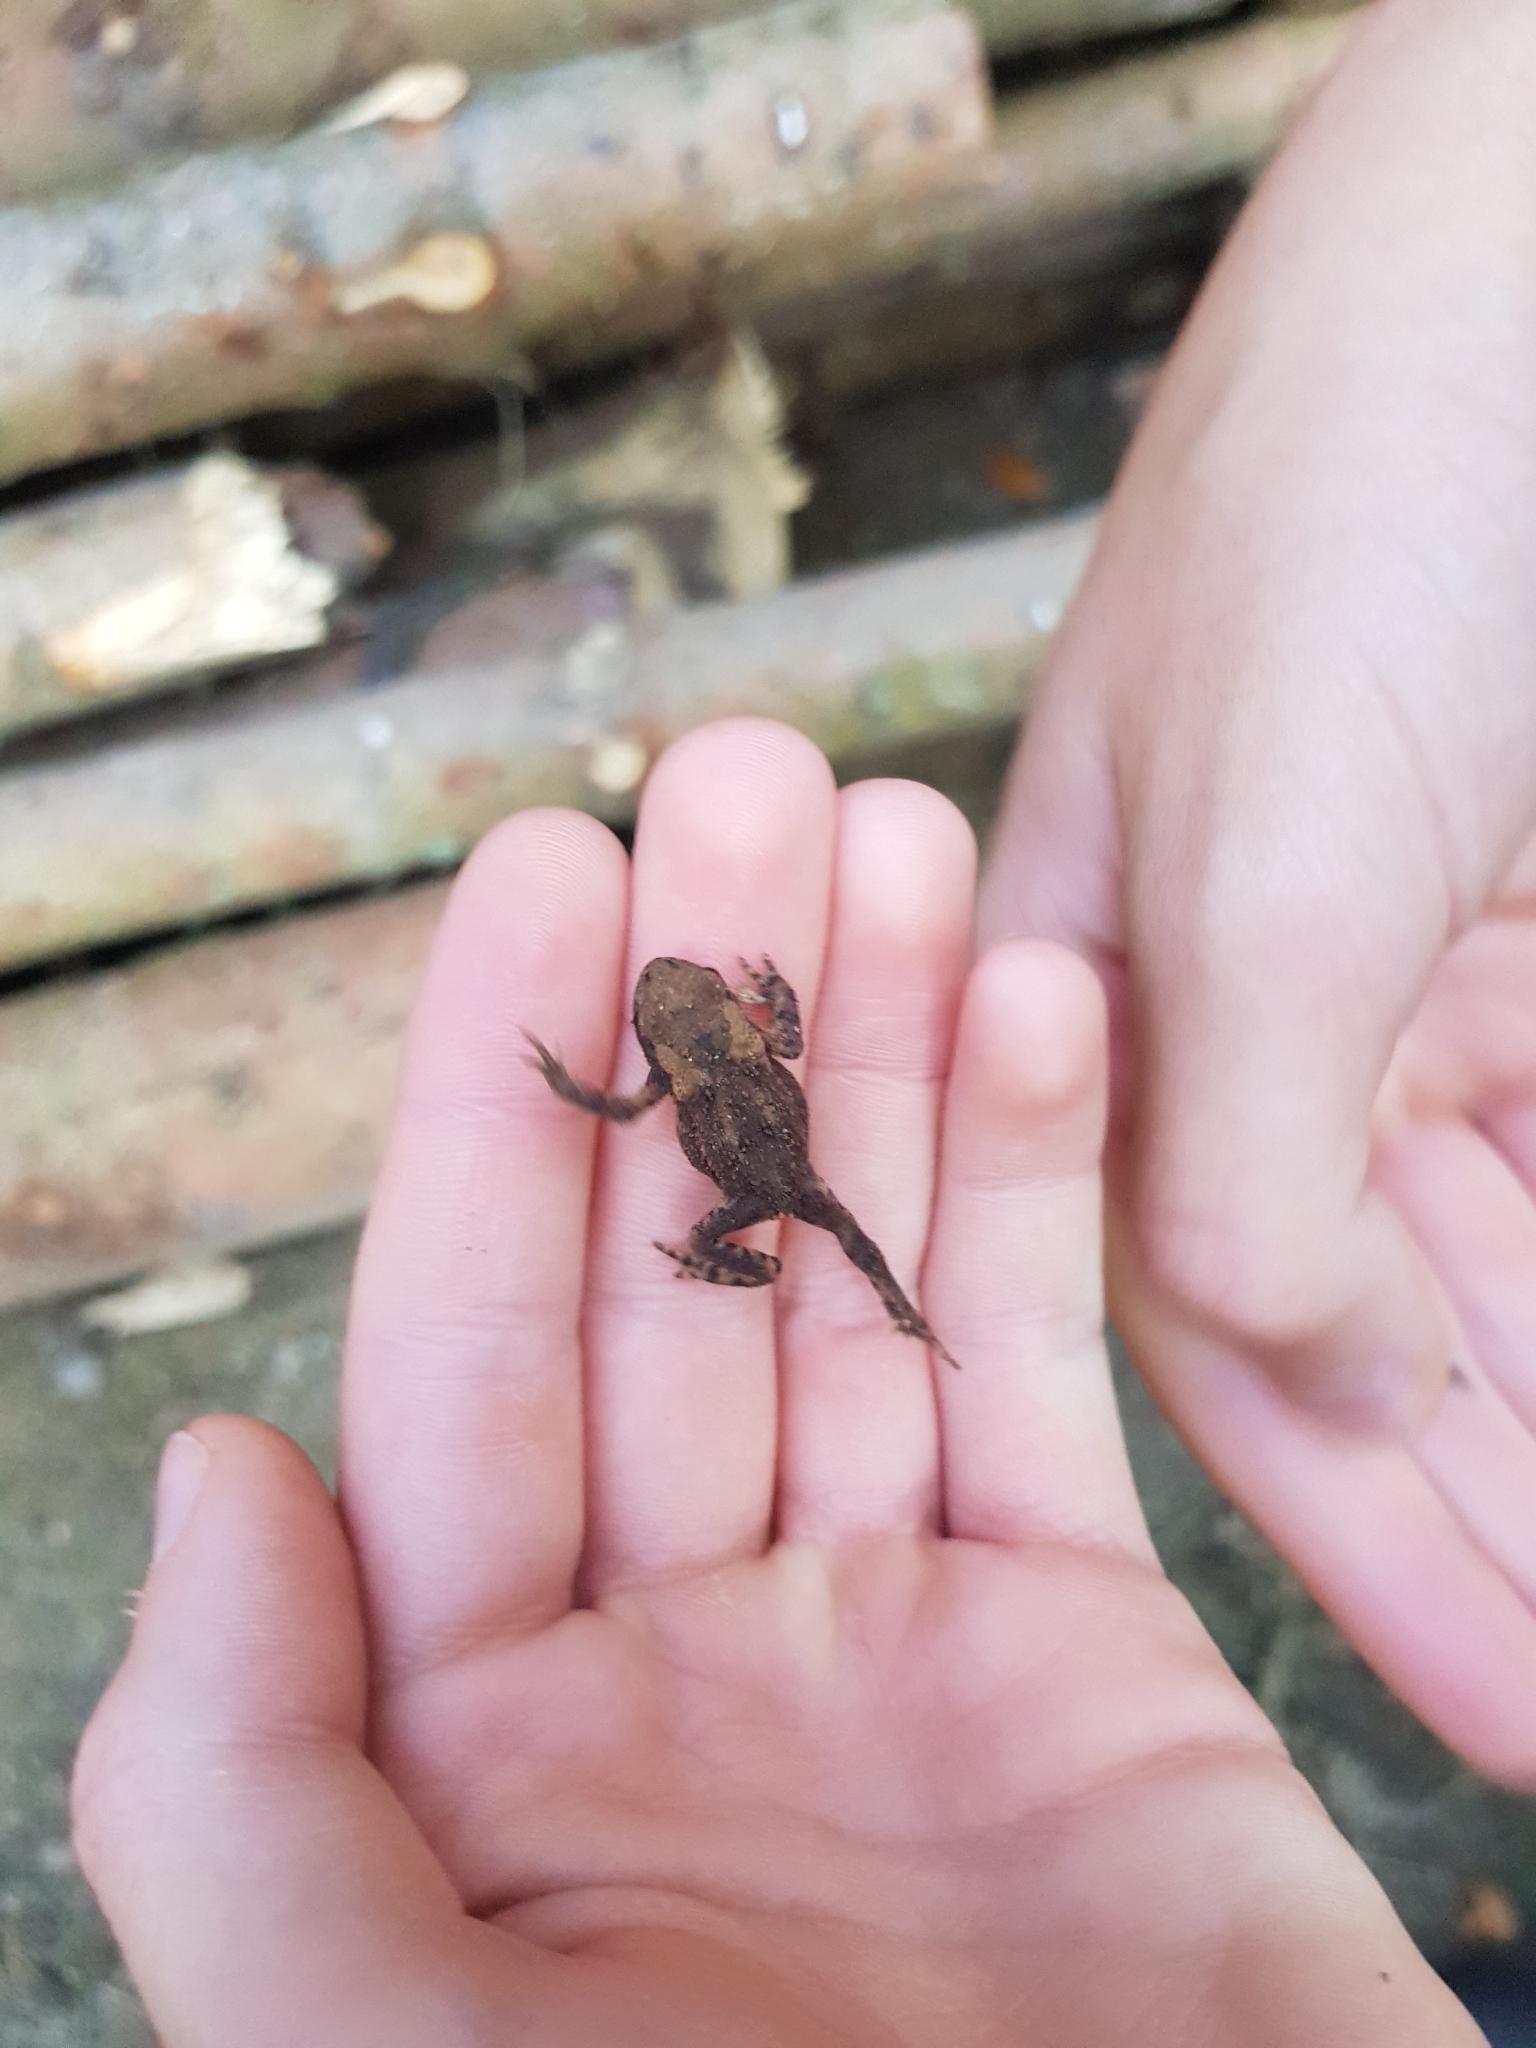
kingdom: Animalia
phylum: Chordata
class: Amphibia
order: Anura
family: Bufonidae
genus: Bufo
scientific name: Bufo bufo
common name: Common toad
